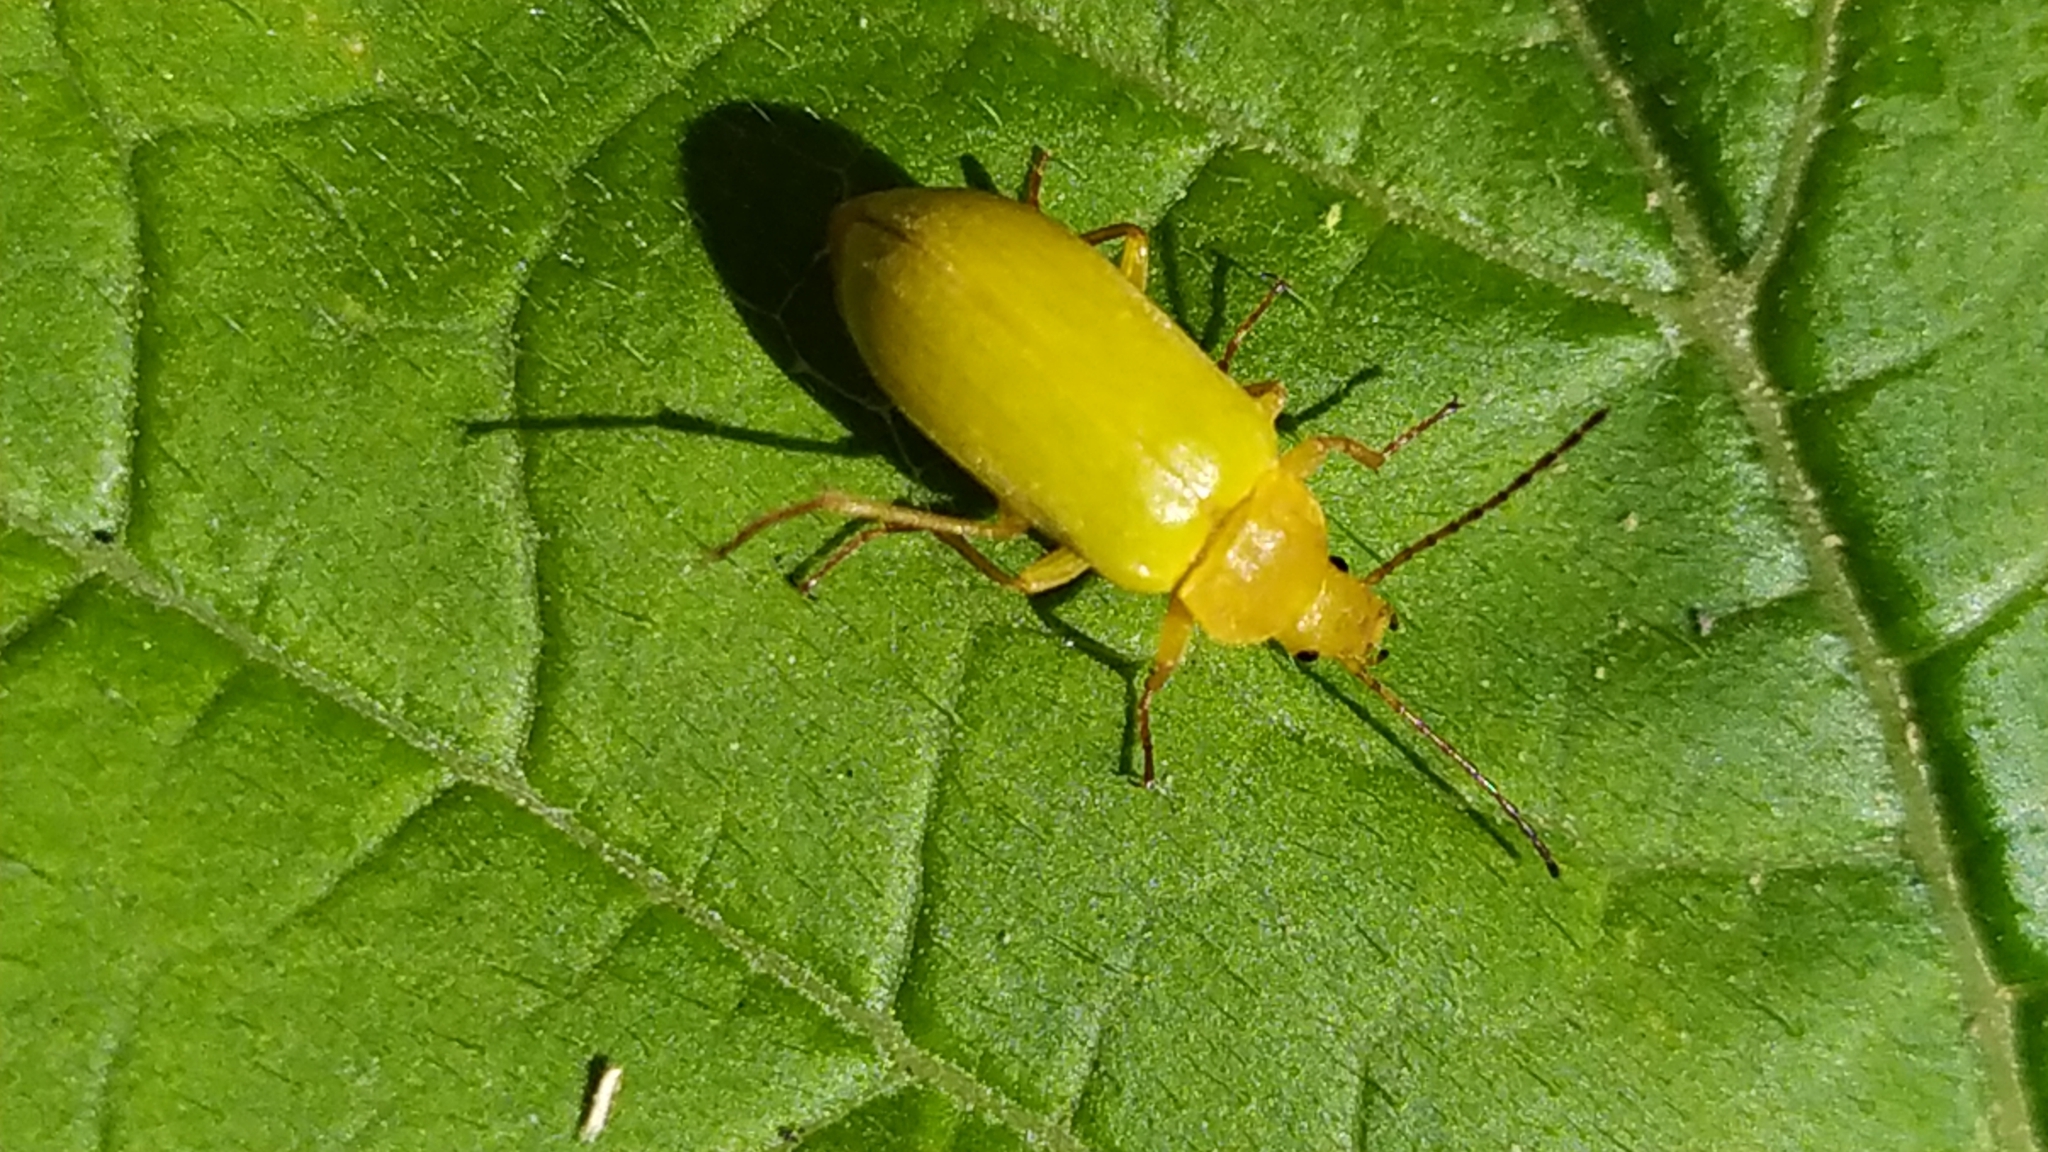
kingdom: Animalia
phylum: Arthropoda
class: Insecta
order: Coleoptera
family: Tenebrionidae
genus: Cteniopus
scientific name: Cteniopus sulphureus
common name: Sulphur beetle
